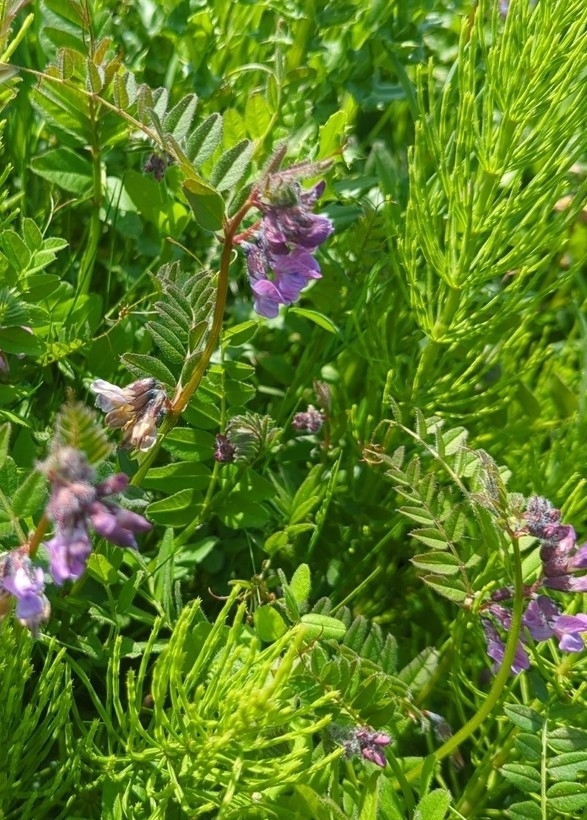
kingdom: Plantae
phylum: Tracheophyta
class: Magnoliopsida
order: Fabales
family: Fabaceae
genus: Vicia
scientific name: Vicia sepium
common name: Bush vetch
